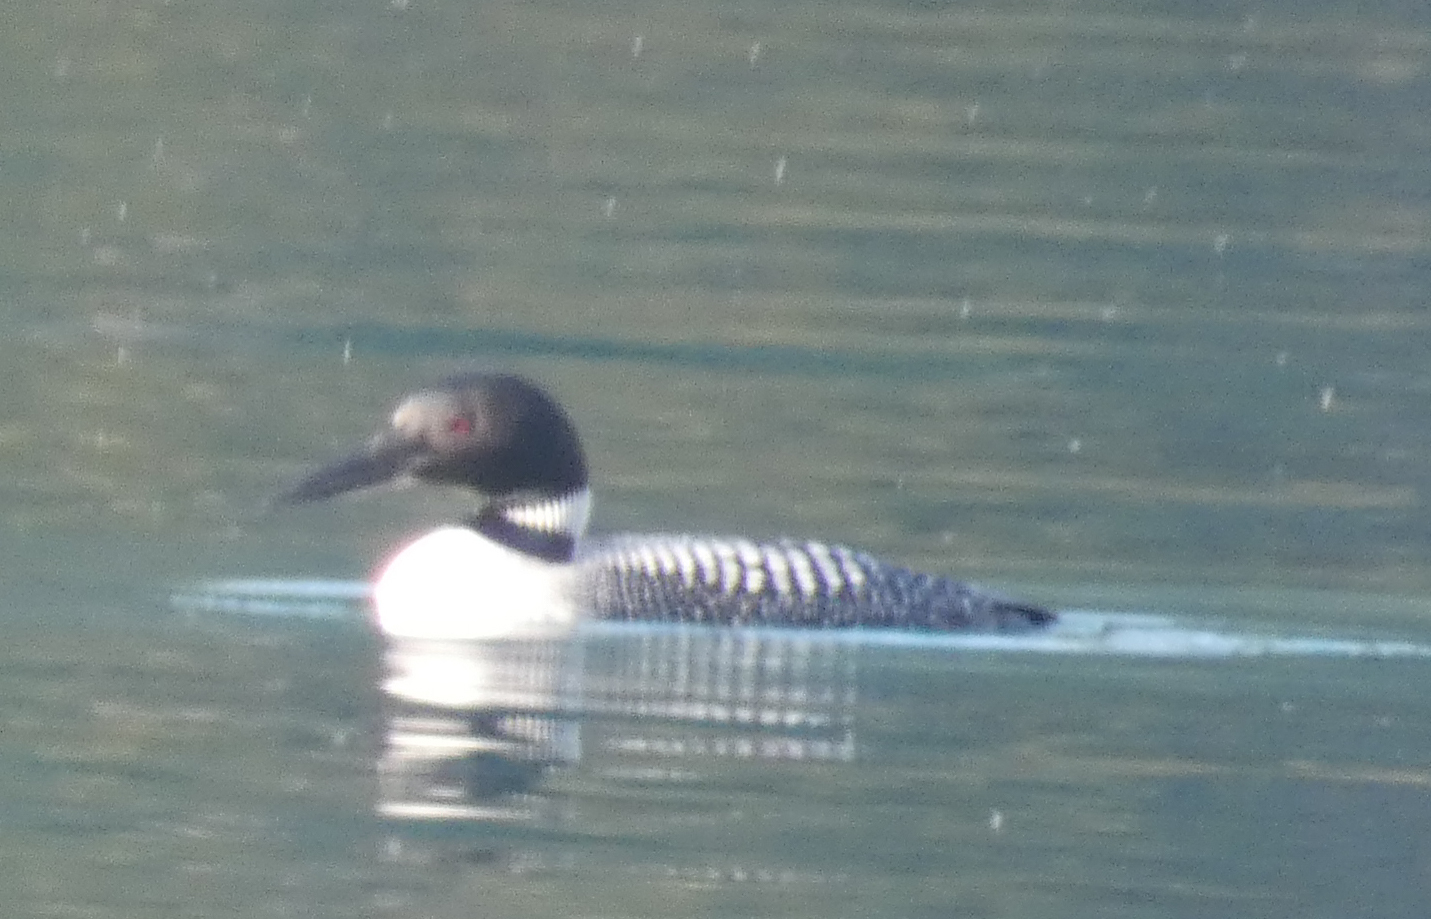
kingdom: Animalia
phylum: Chordata
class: Aves
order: Gaviiformes
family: Gaviidae
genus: Gavia
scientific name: Gavia immer
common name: Common loon
